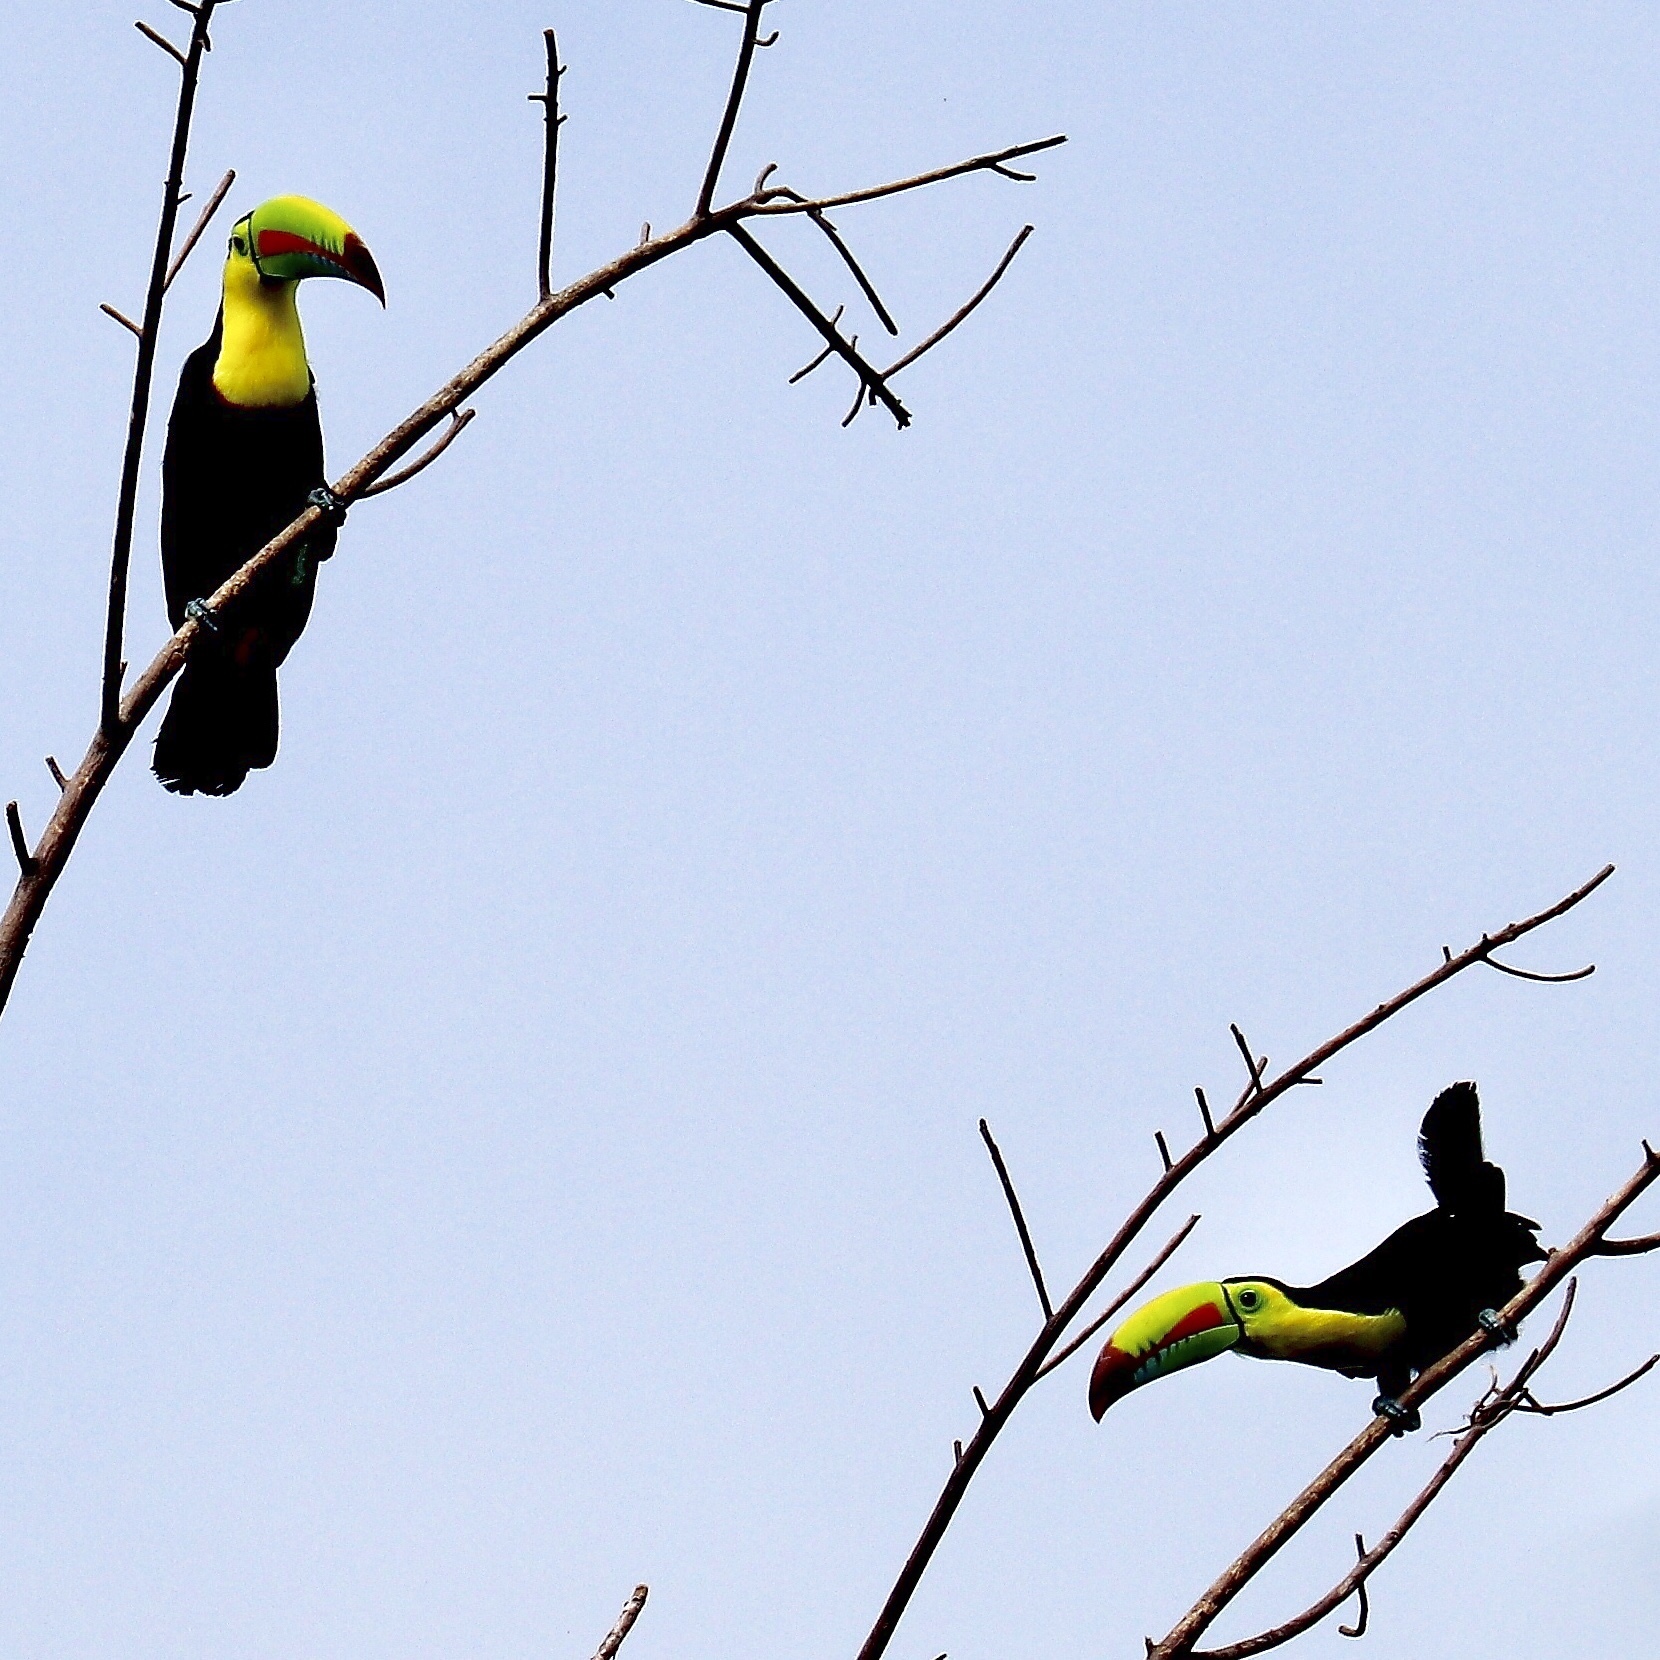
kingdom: Animalia
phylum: Chordata
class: Aves
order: Piciformes
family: Ramphastidae
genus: Ramphastos
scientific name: Ramphastos sulfuratus
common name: Keel-billed toucan
